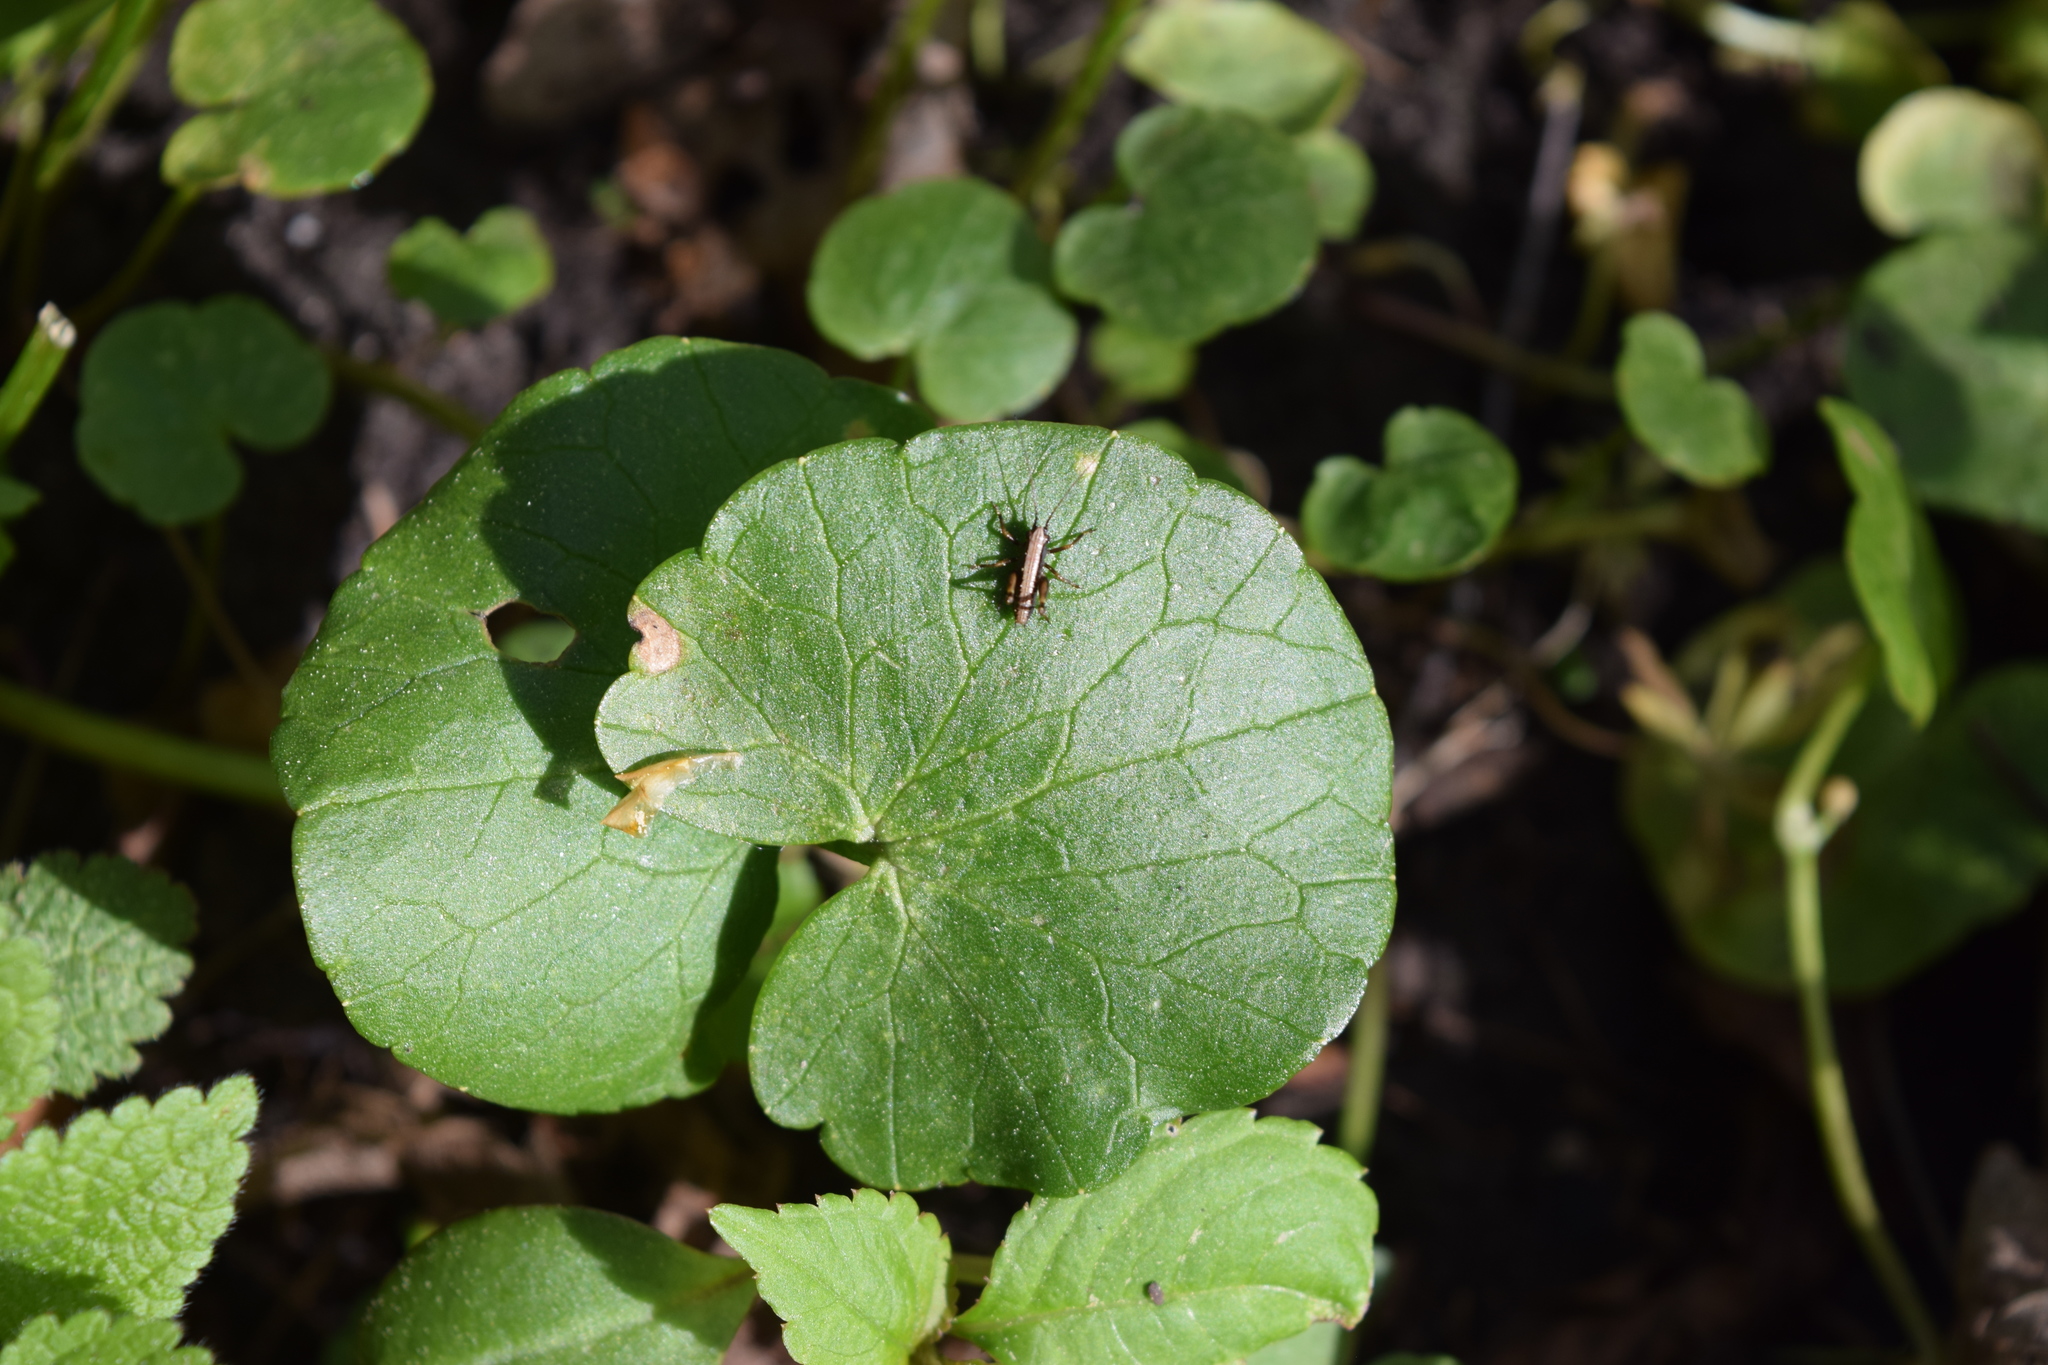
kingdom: Plantae
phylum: Tracheophyta
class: Magnoliopsida
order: Ranunculales
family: Ranunculaceae
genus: Ficaria
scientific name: Ficaria verna
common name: Lesser celandine
